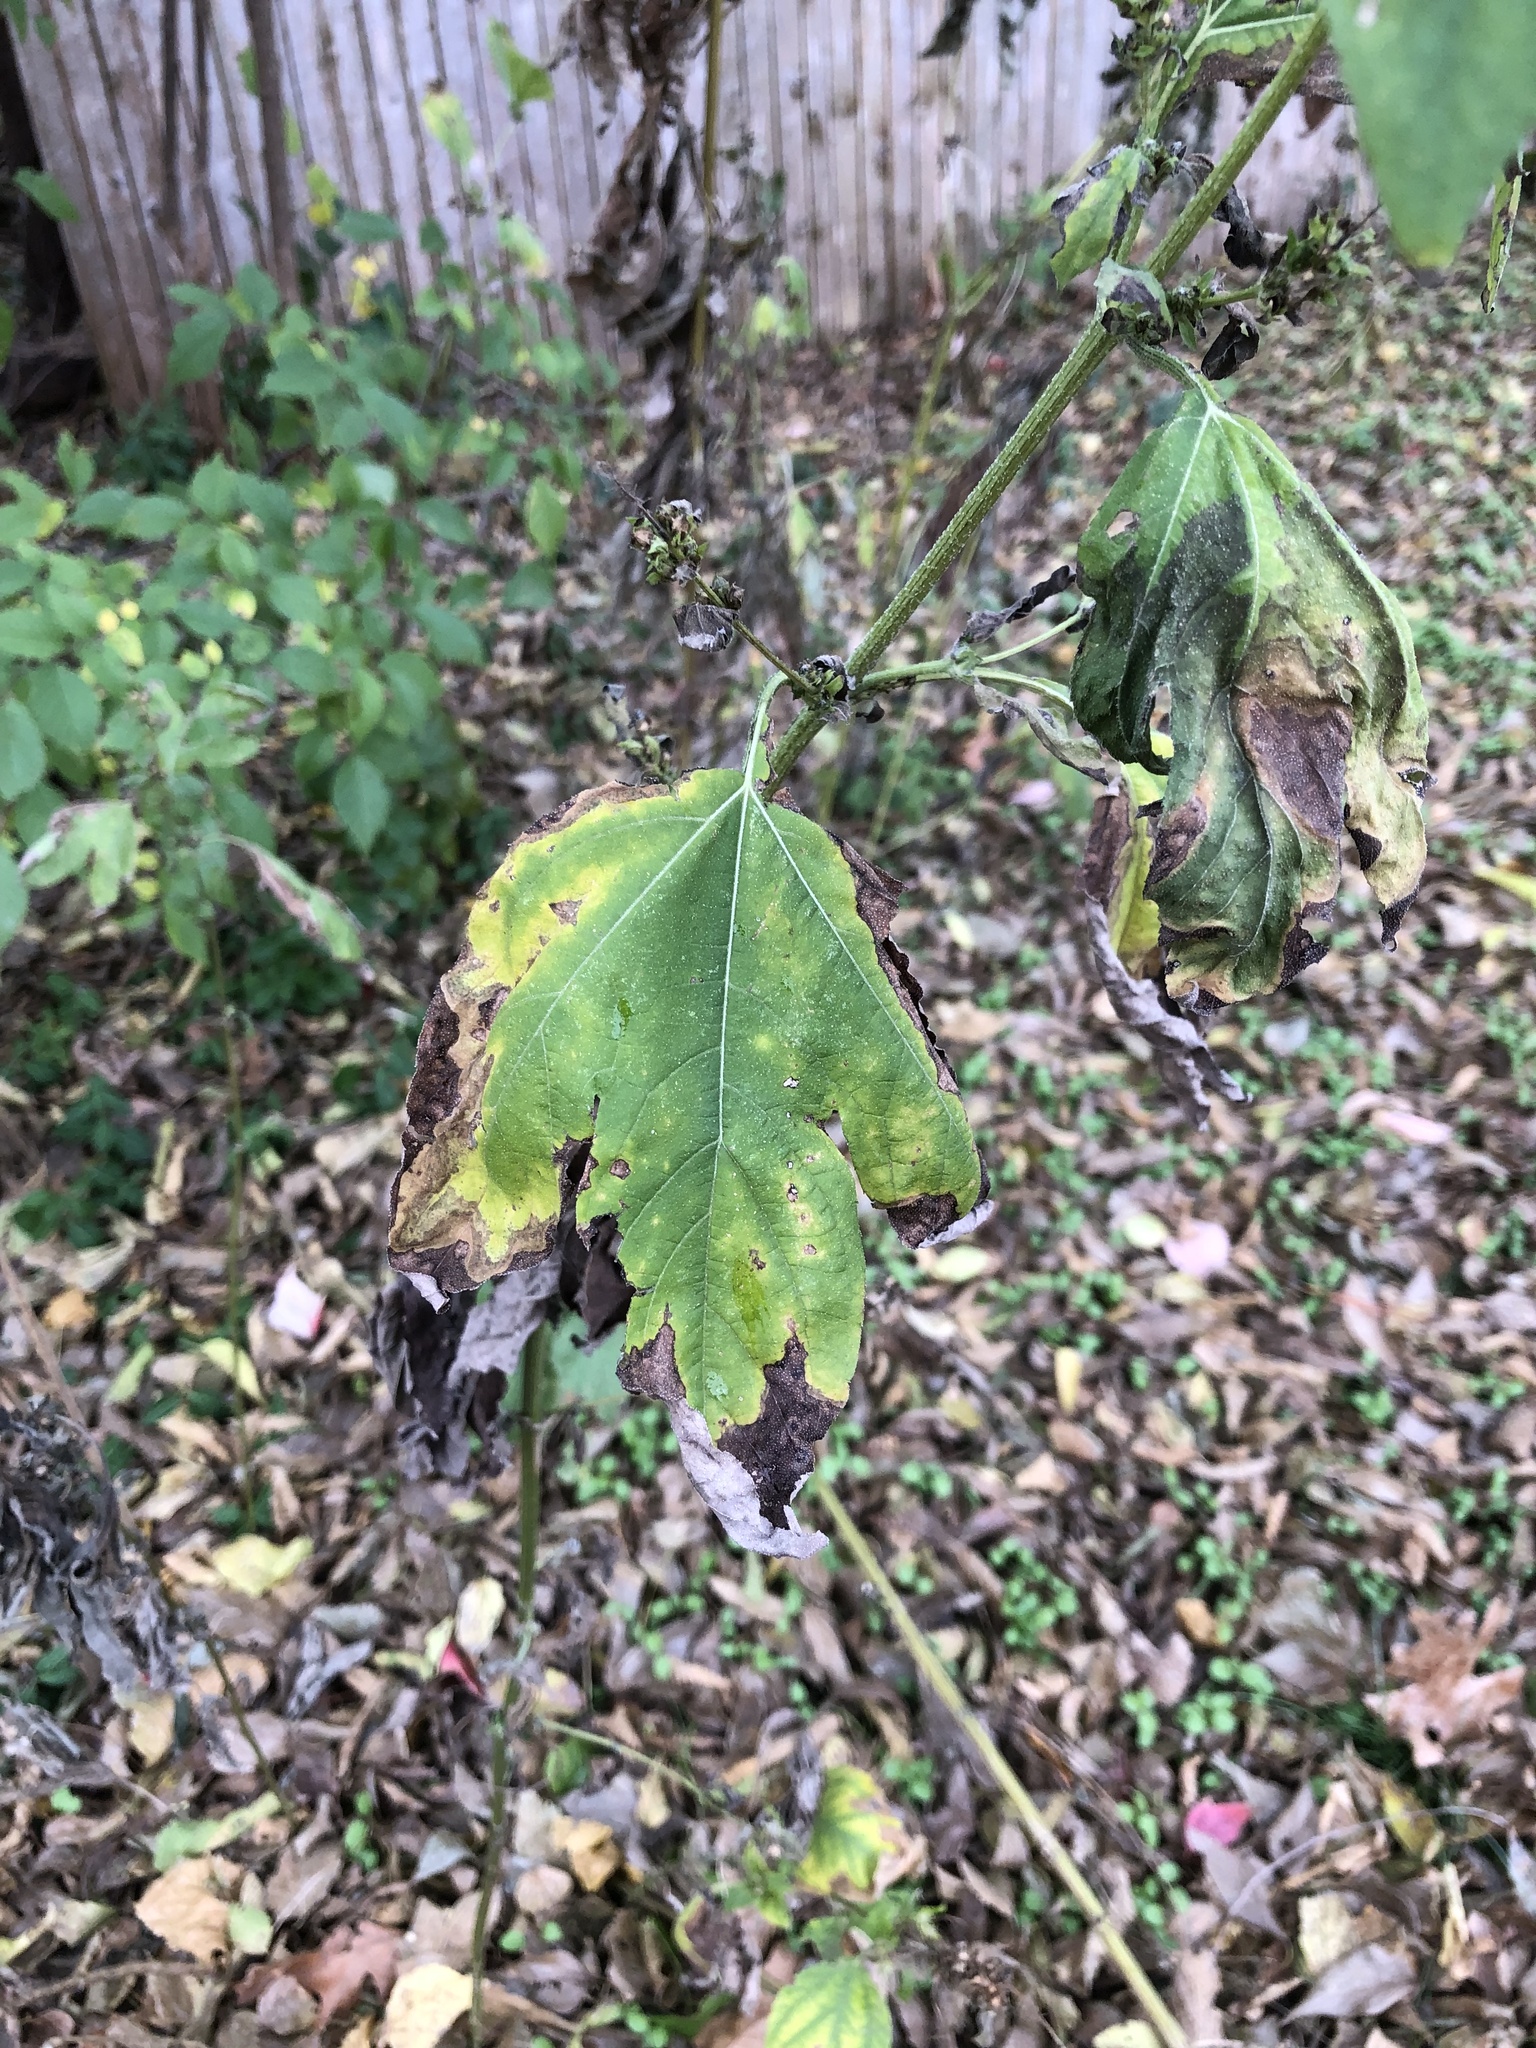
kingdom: Plantae
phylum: Tracheophyta
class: Magnoliopsida
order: Asterales
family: Asteraceae
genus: Ambrosia
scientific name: Ambrosia trifida
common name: Giant ragweed
